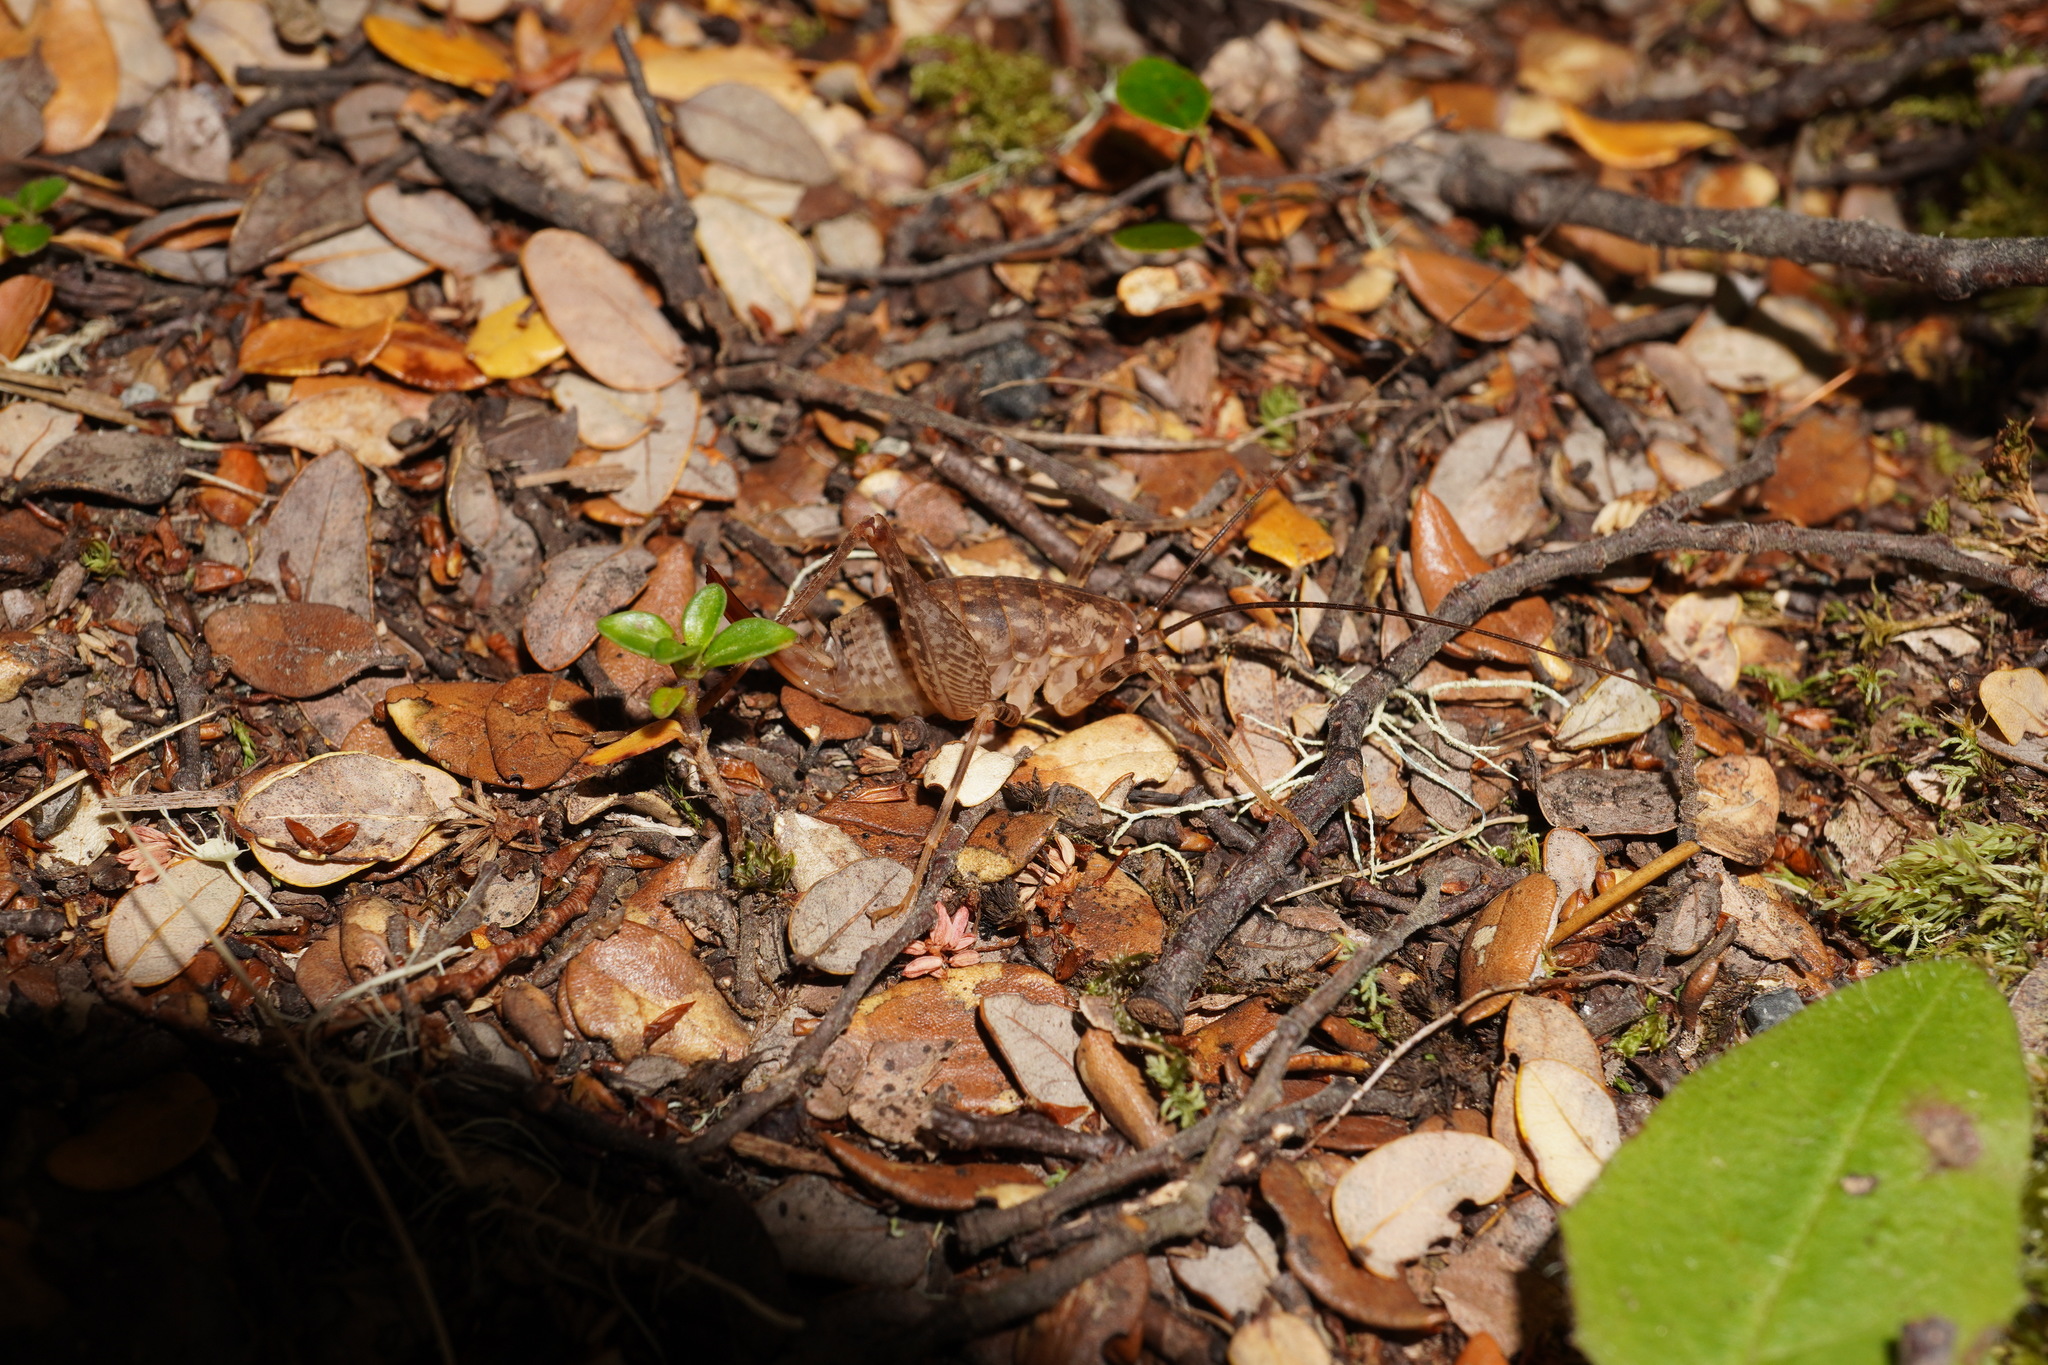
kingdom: Animalia
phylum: Arthropoda
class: Insecta
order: Orthoptera
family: Rhaphidophoridae
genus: Pleioplectron
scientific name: Pleioplectron simplex
